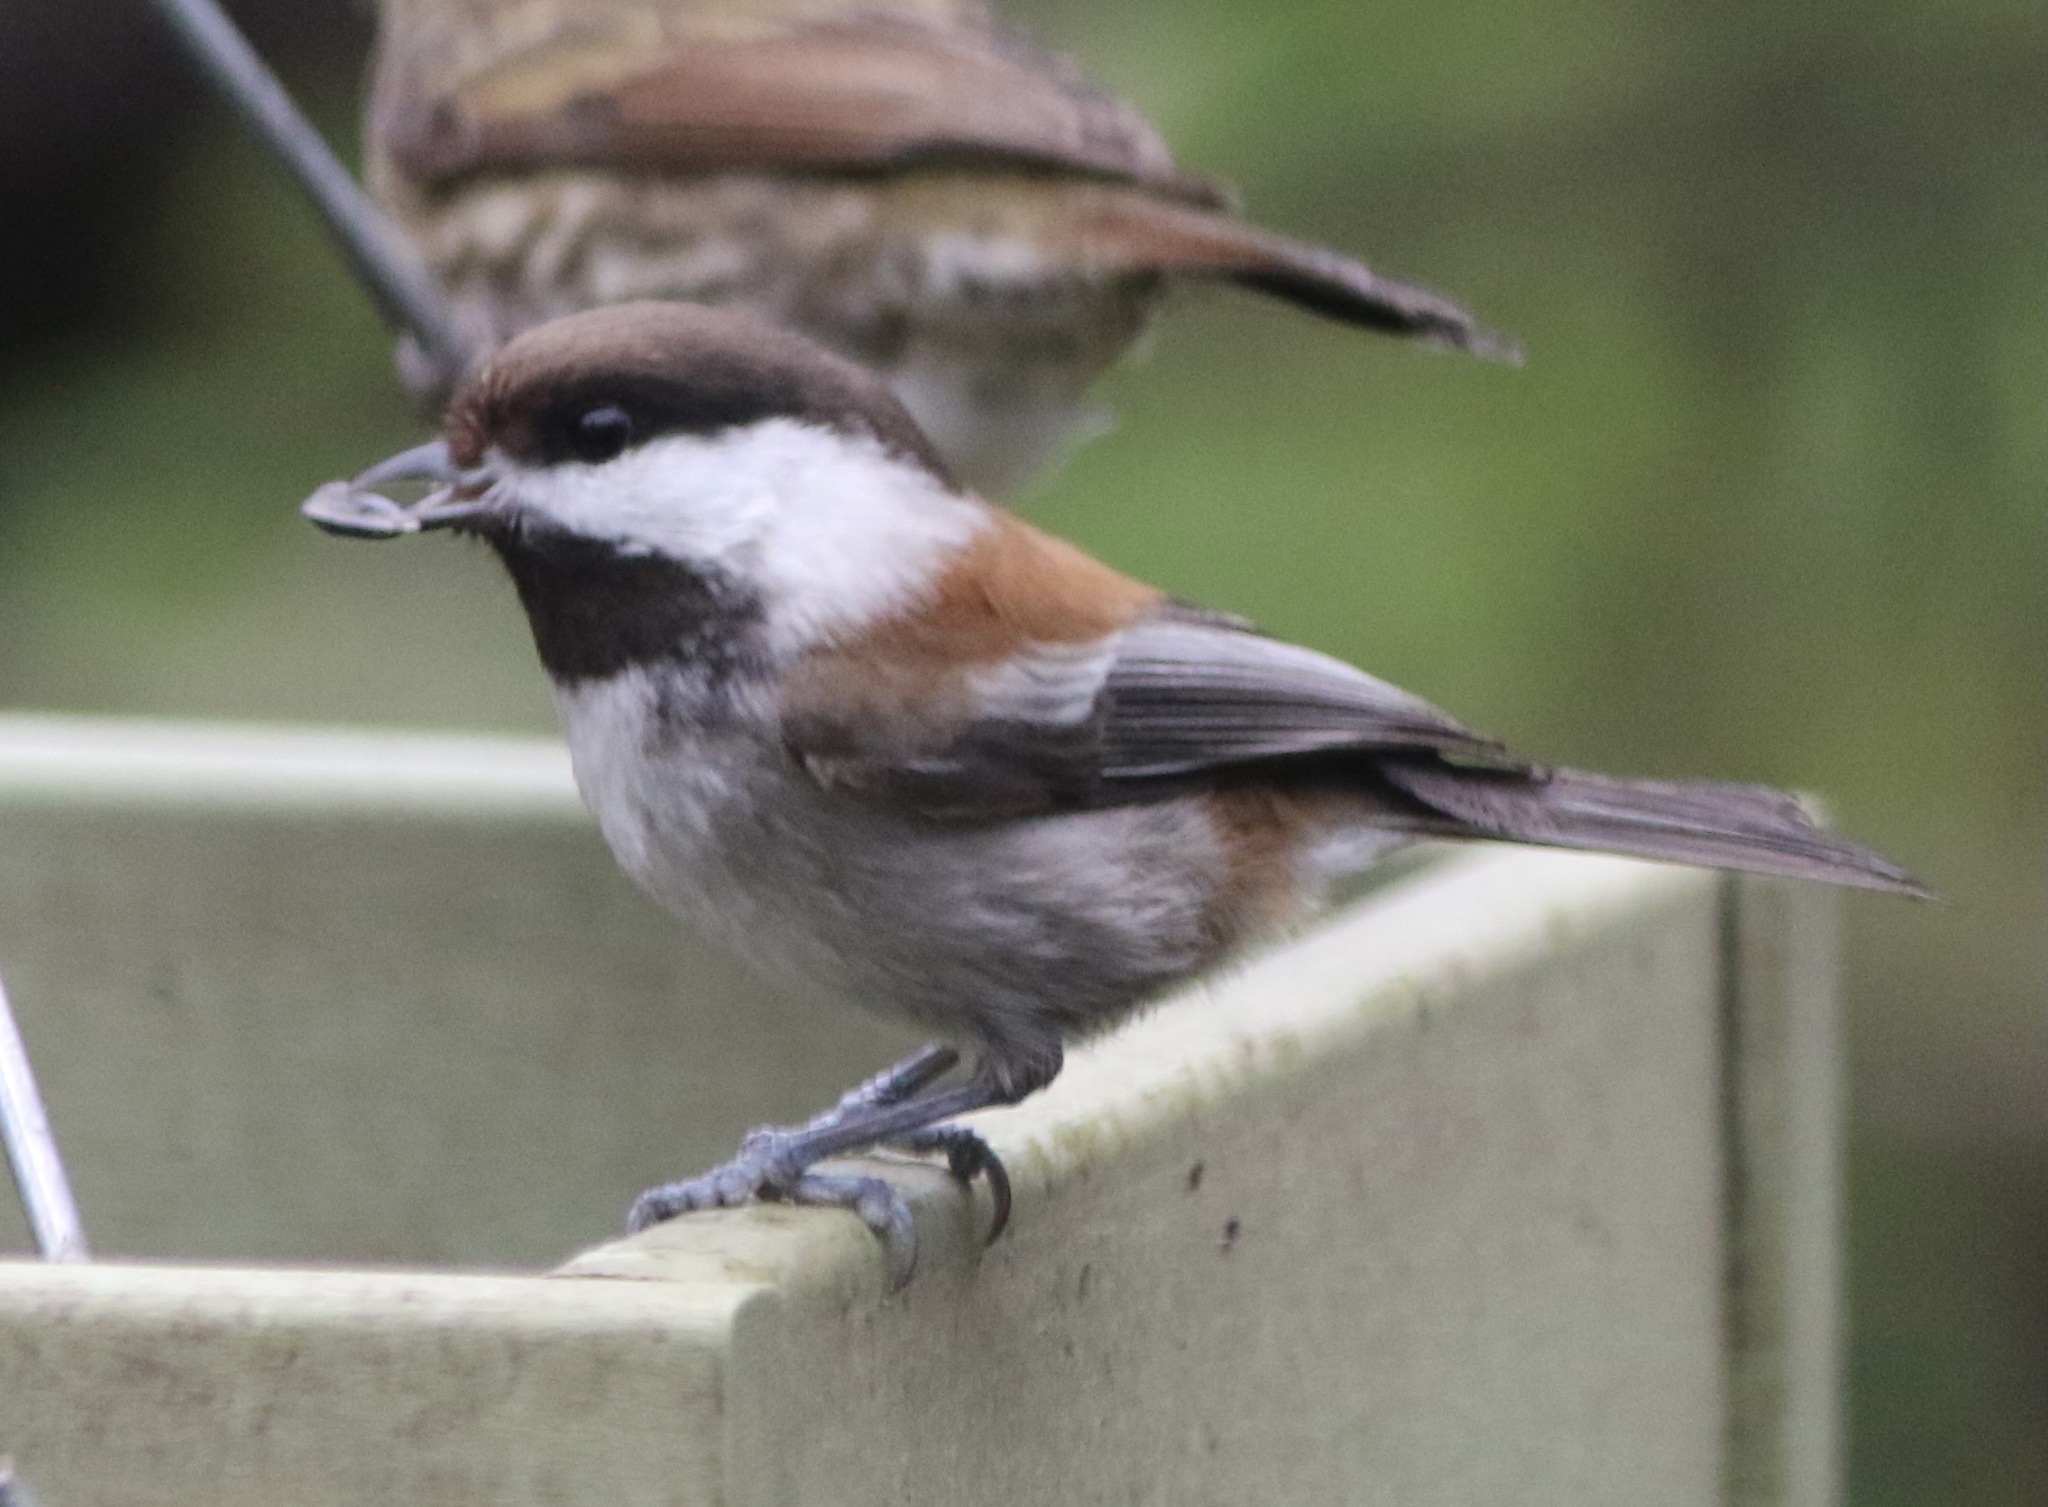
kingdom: Animalia
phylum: Chordata
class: Aves
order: Passeriformes
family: Paridae
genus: Poecile
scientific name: Poecile rufescens
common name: Chestnut-backed chickadee
